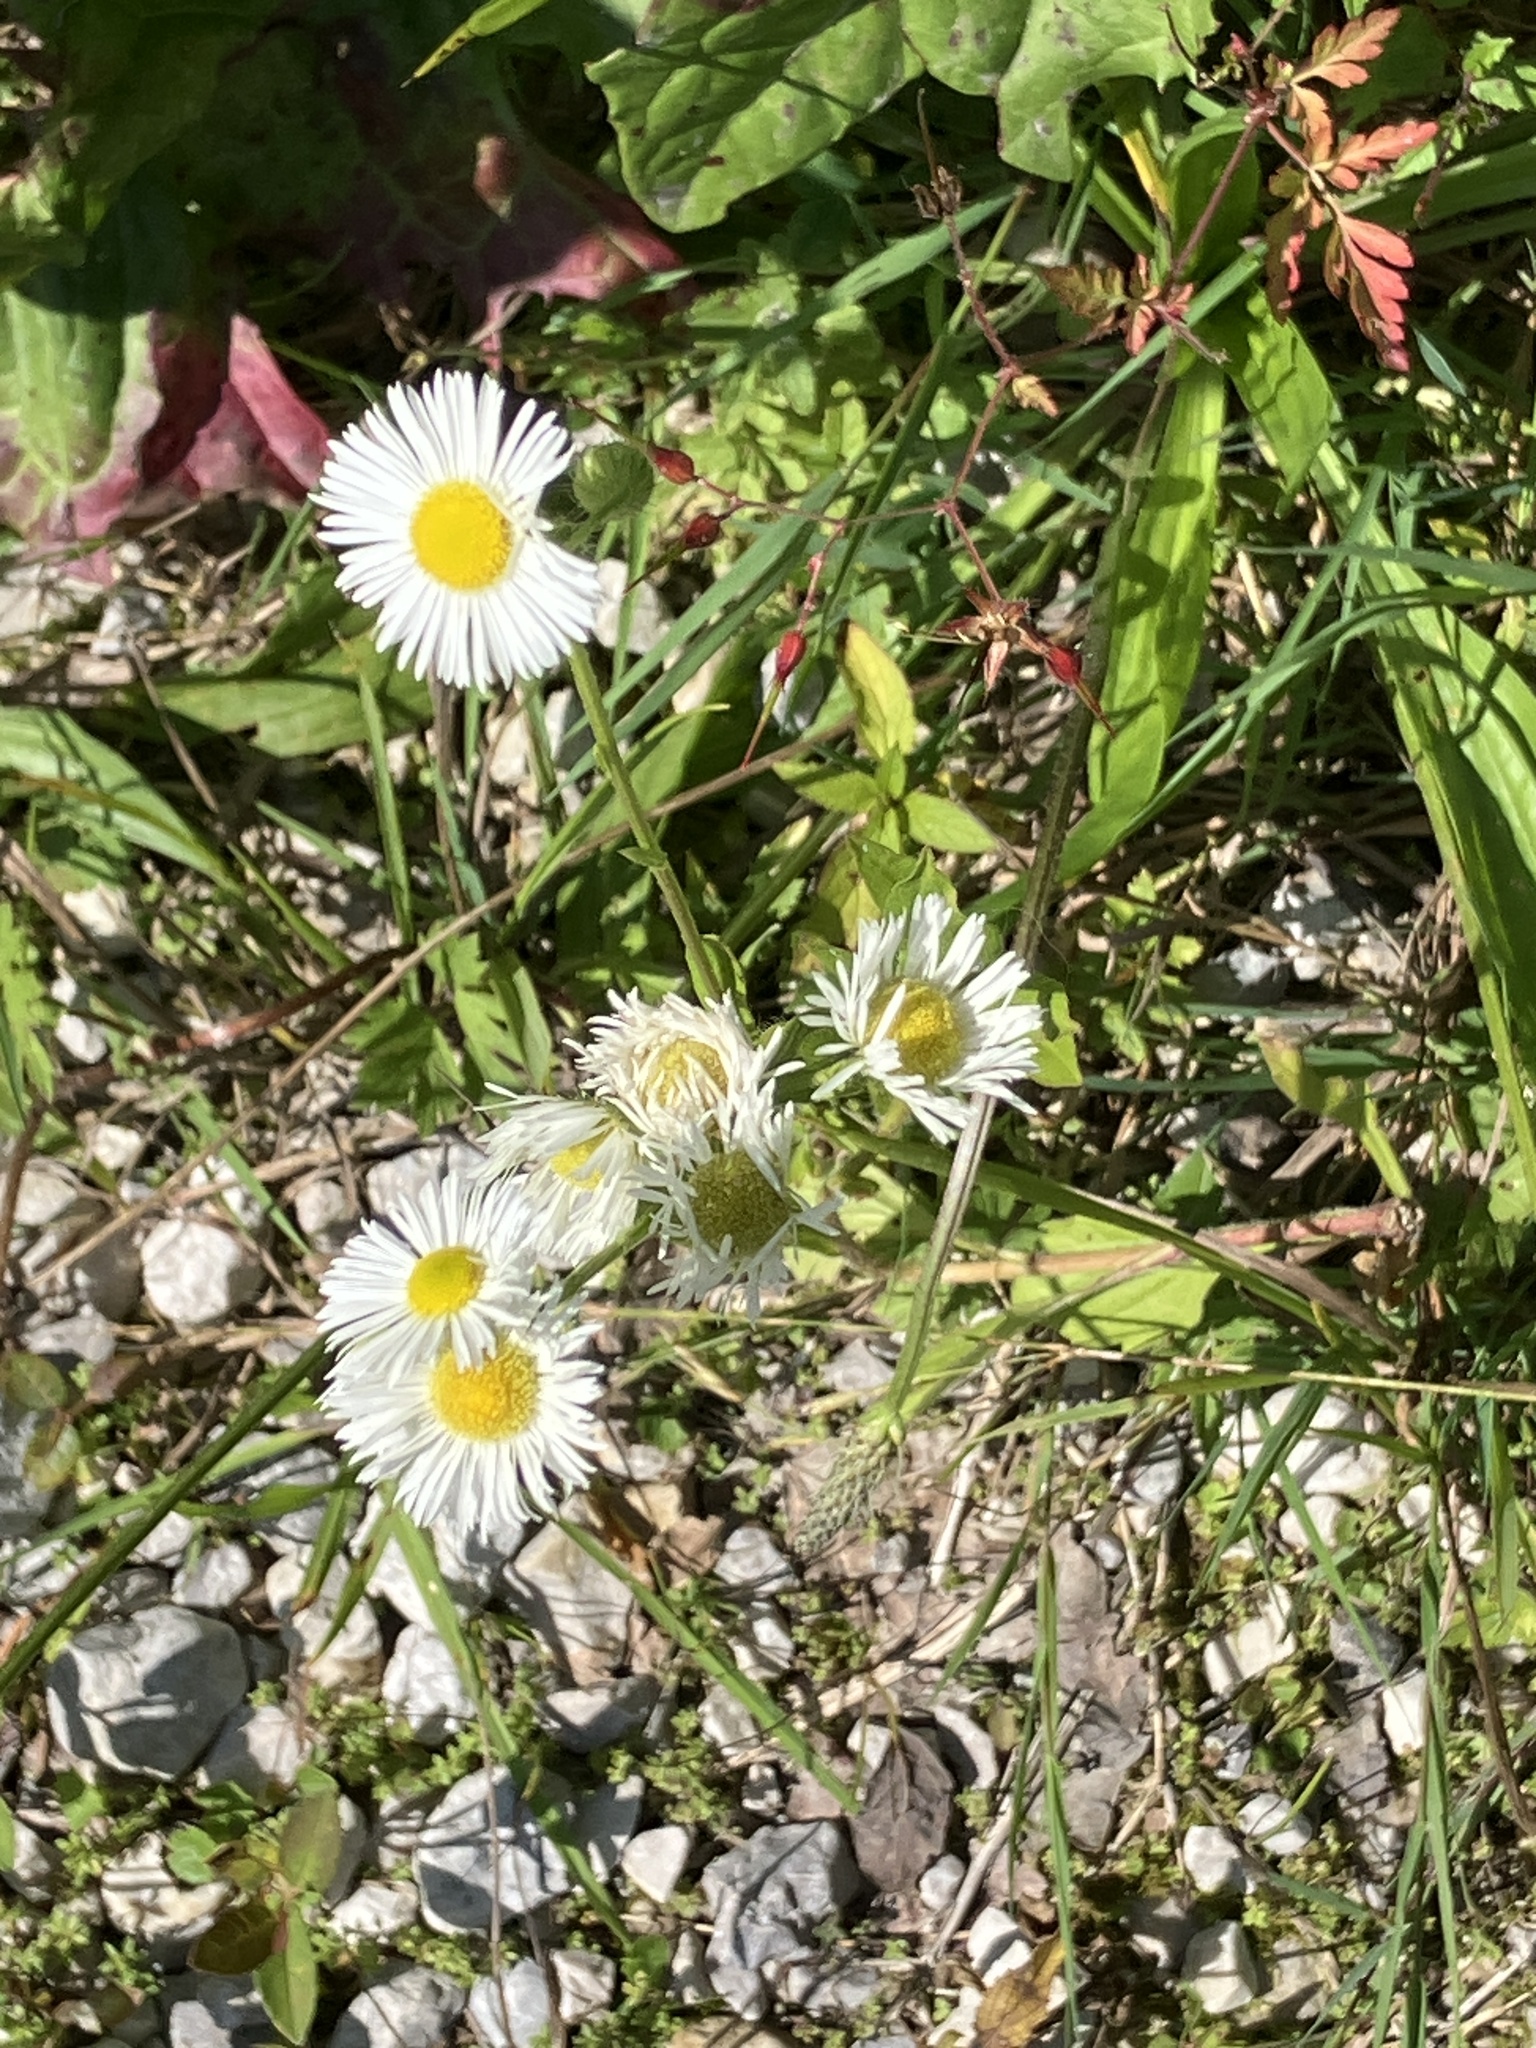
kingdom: Plantae
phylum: Tracheophyta
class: Magnoliopsida
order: Asterales
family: Asteraceae
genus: Erigeron
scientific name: Erigeron annuus
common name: Tall fleabane
